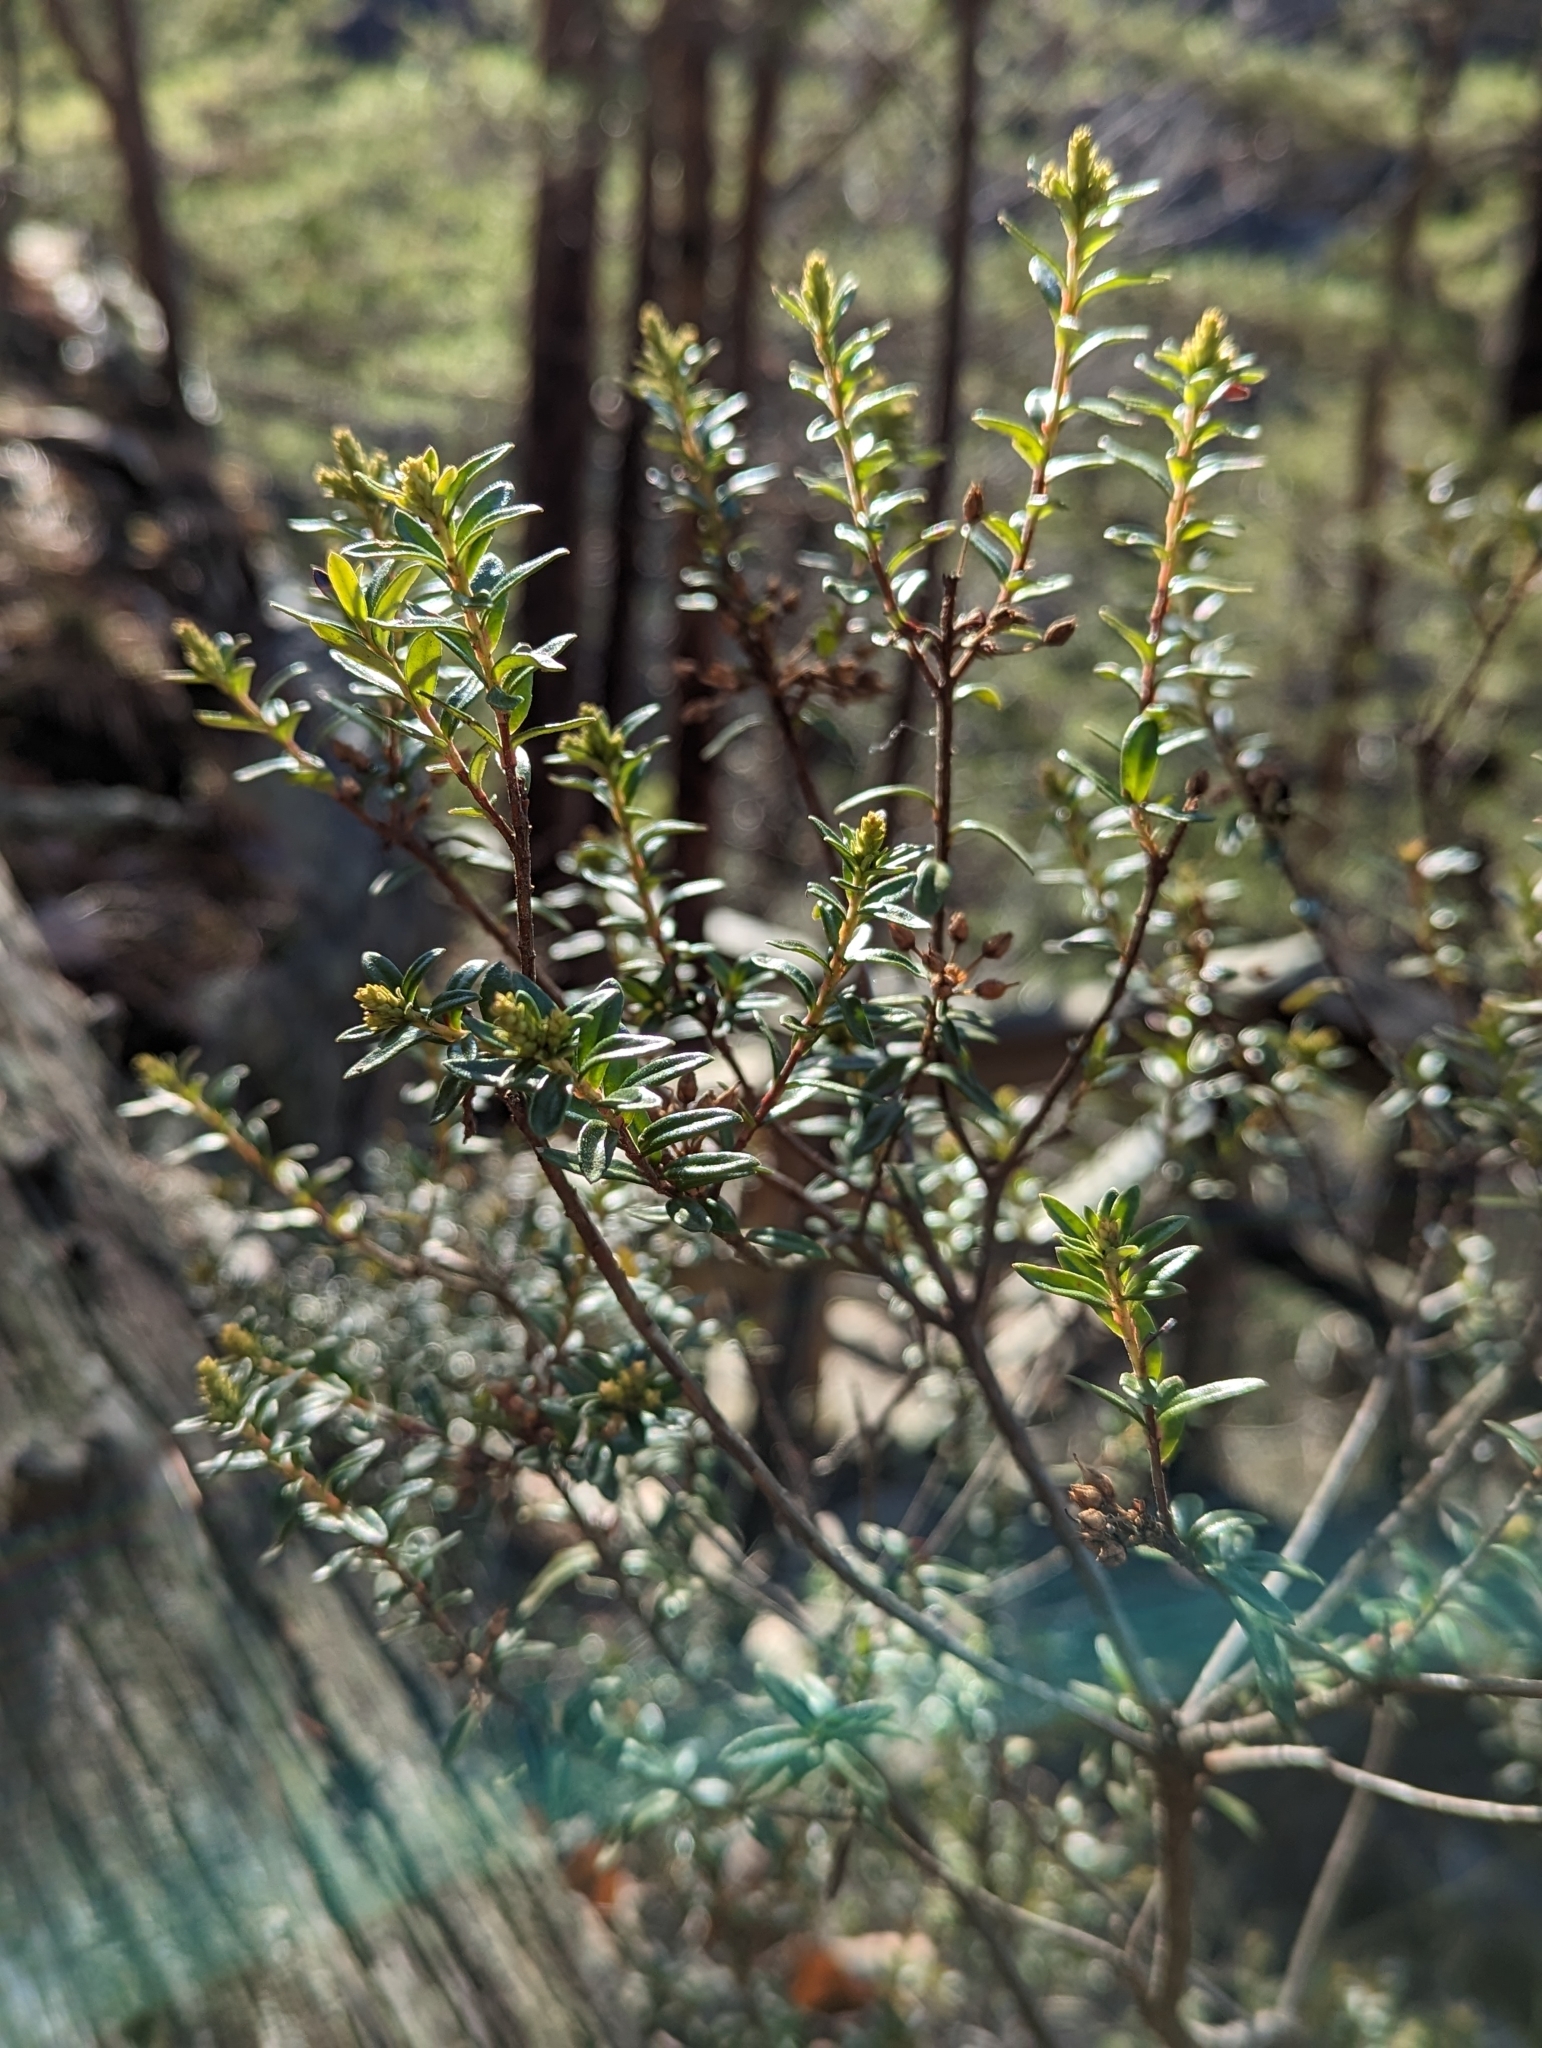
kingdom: Plantae
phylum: Tracheophyta
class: Magnoliopsida
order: Ericales
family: Ericaceae
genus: Kalmia
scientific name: Kalmia buxifolia
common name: Sandmyrtle
